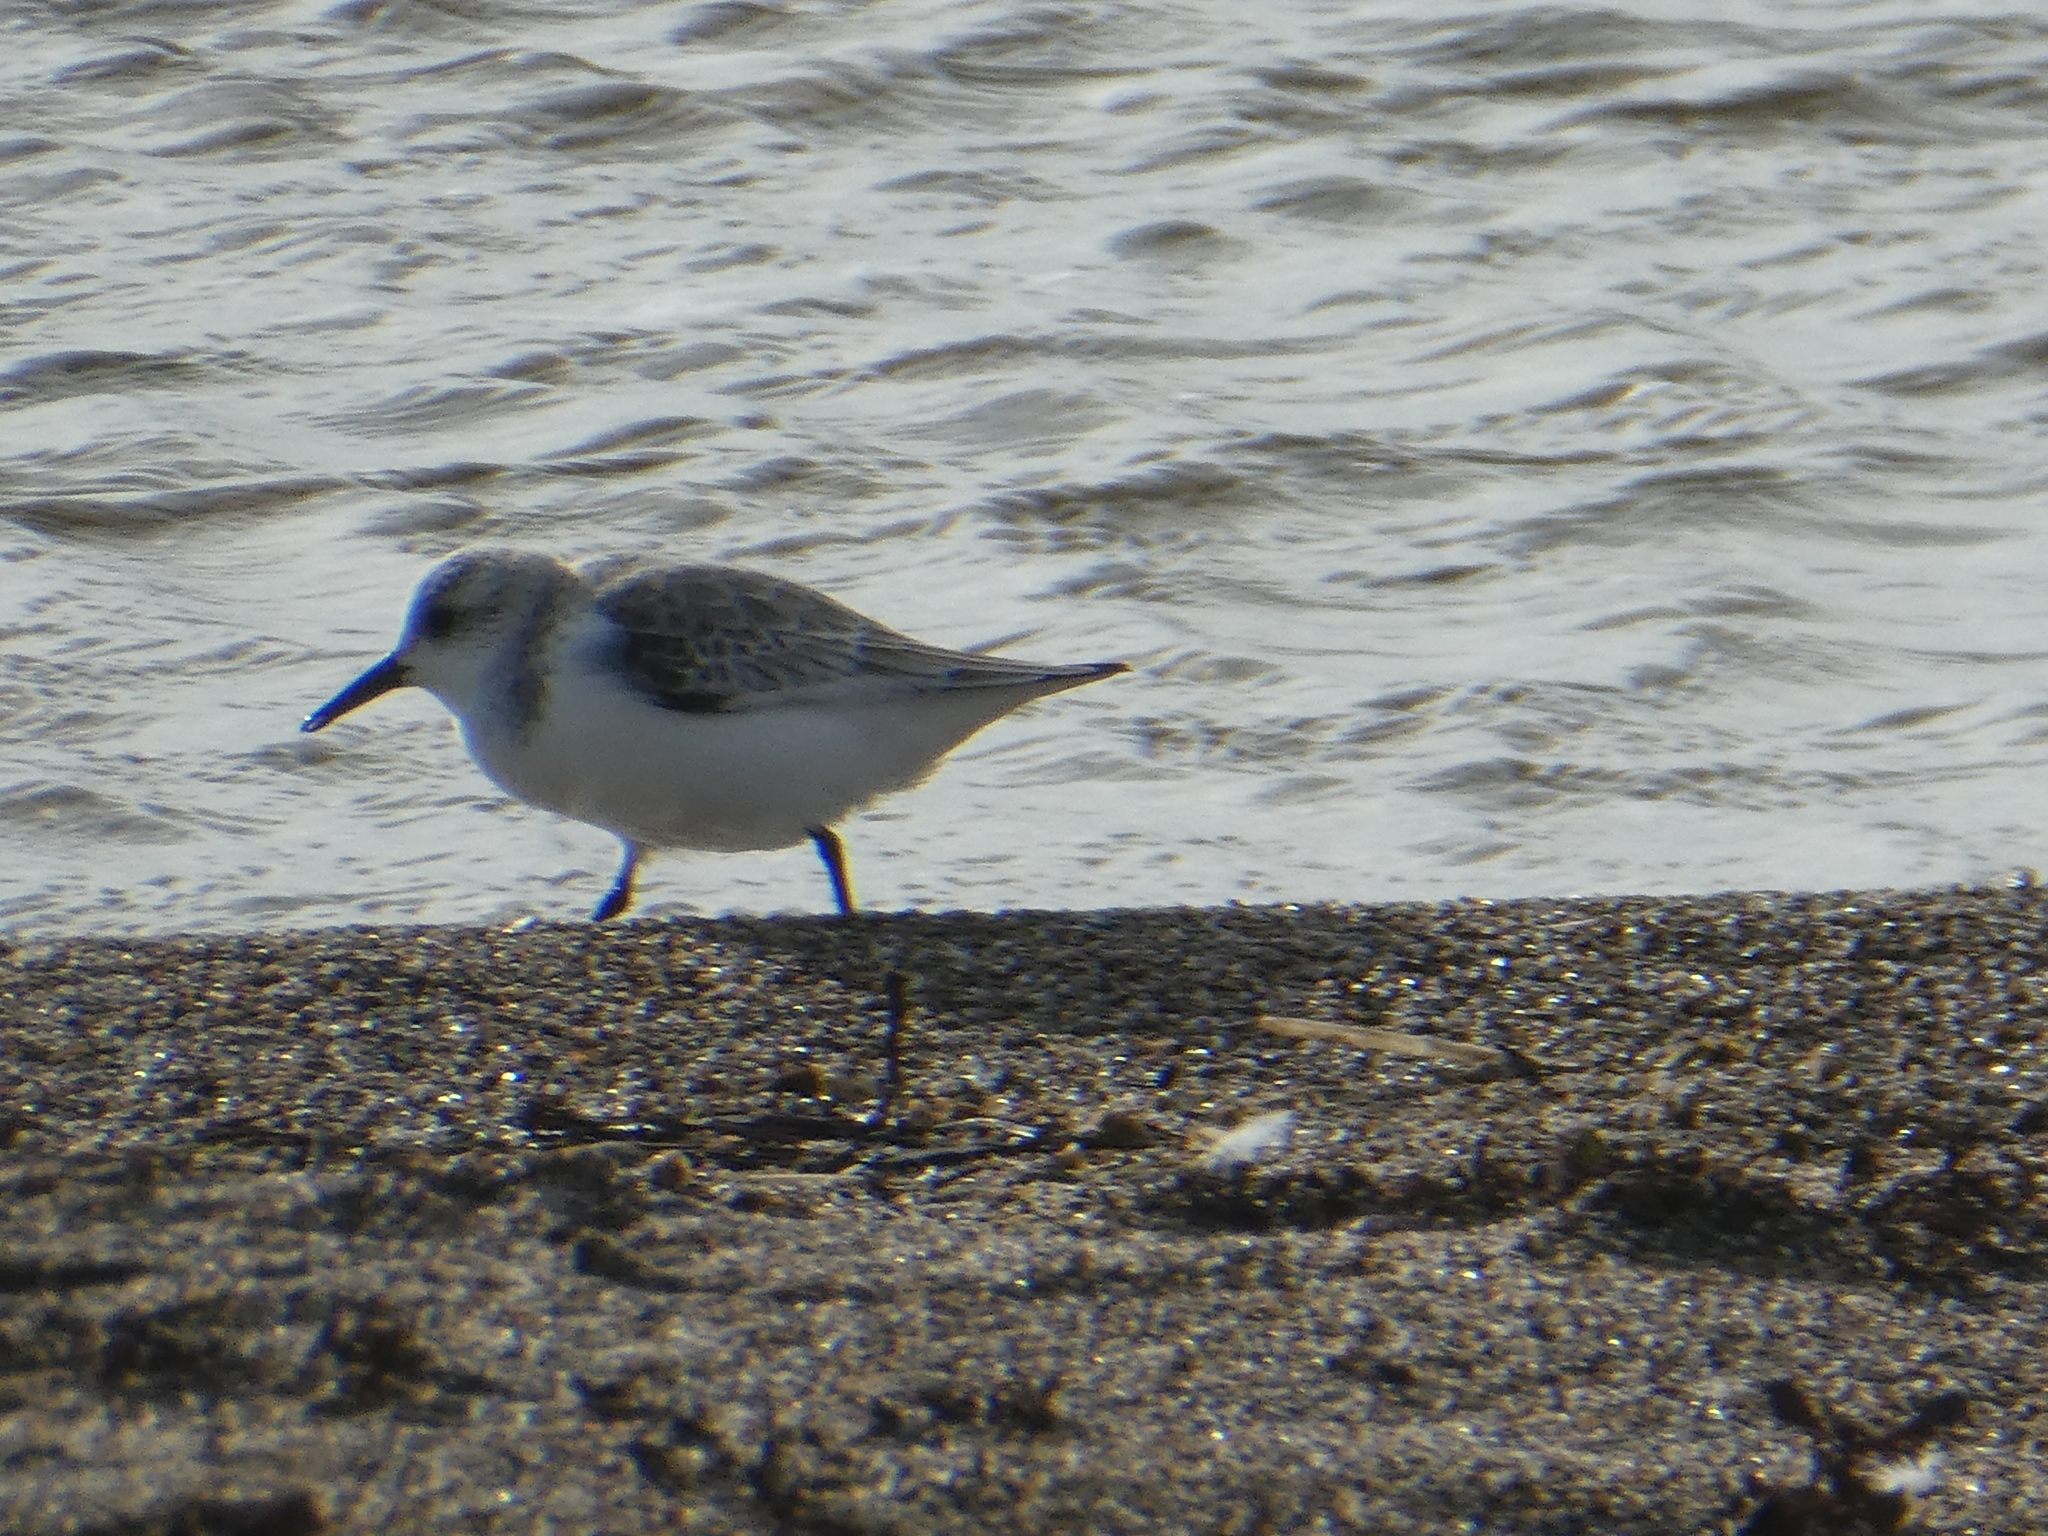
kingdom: Animalia
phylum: Chordata
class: Aves
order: Charadriiformes
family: Scolopacidae
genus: Calidris
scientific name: Calidris alba
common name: Sanderling
